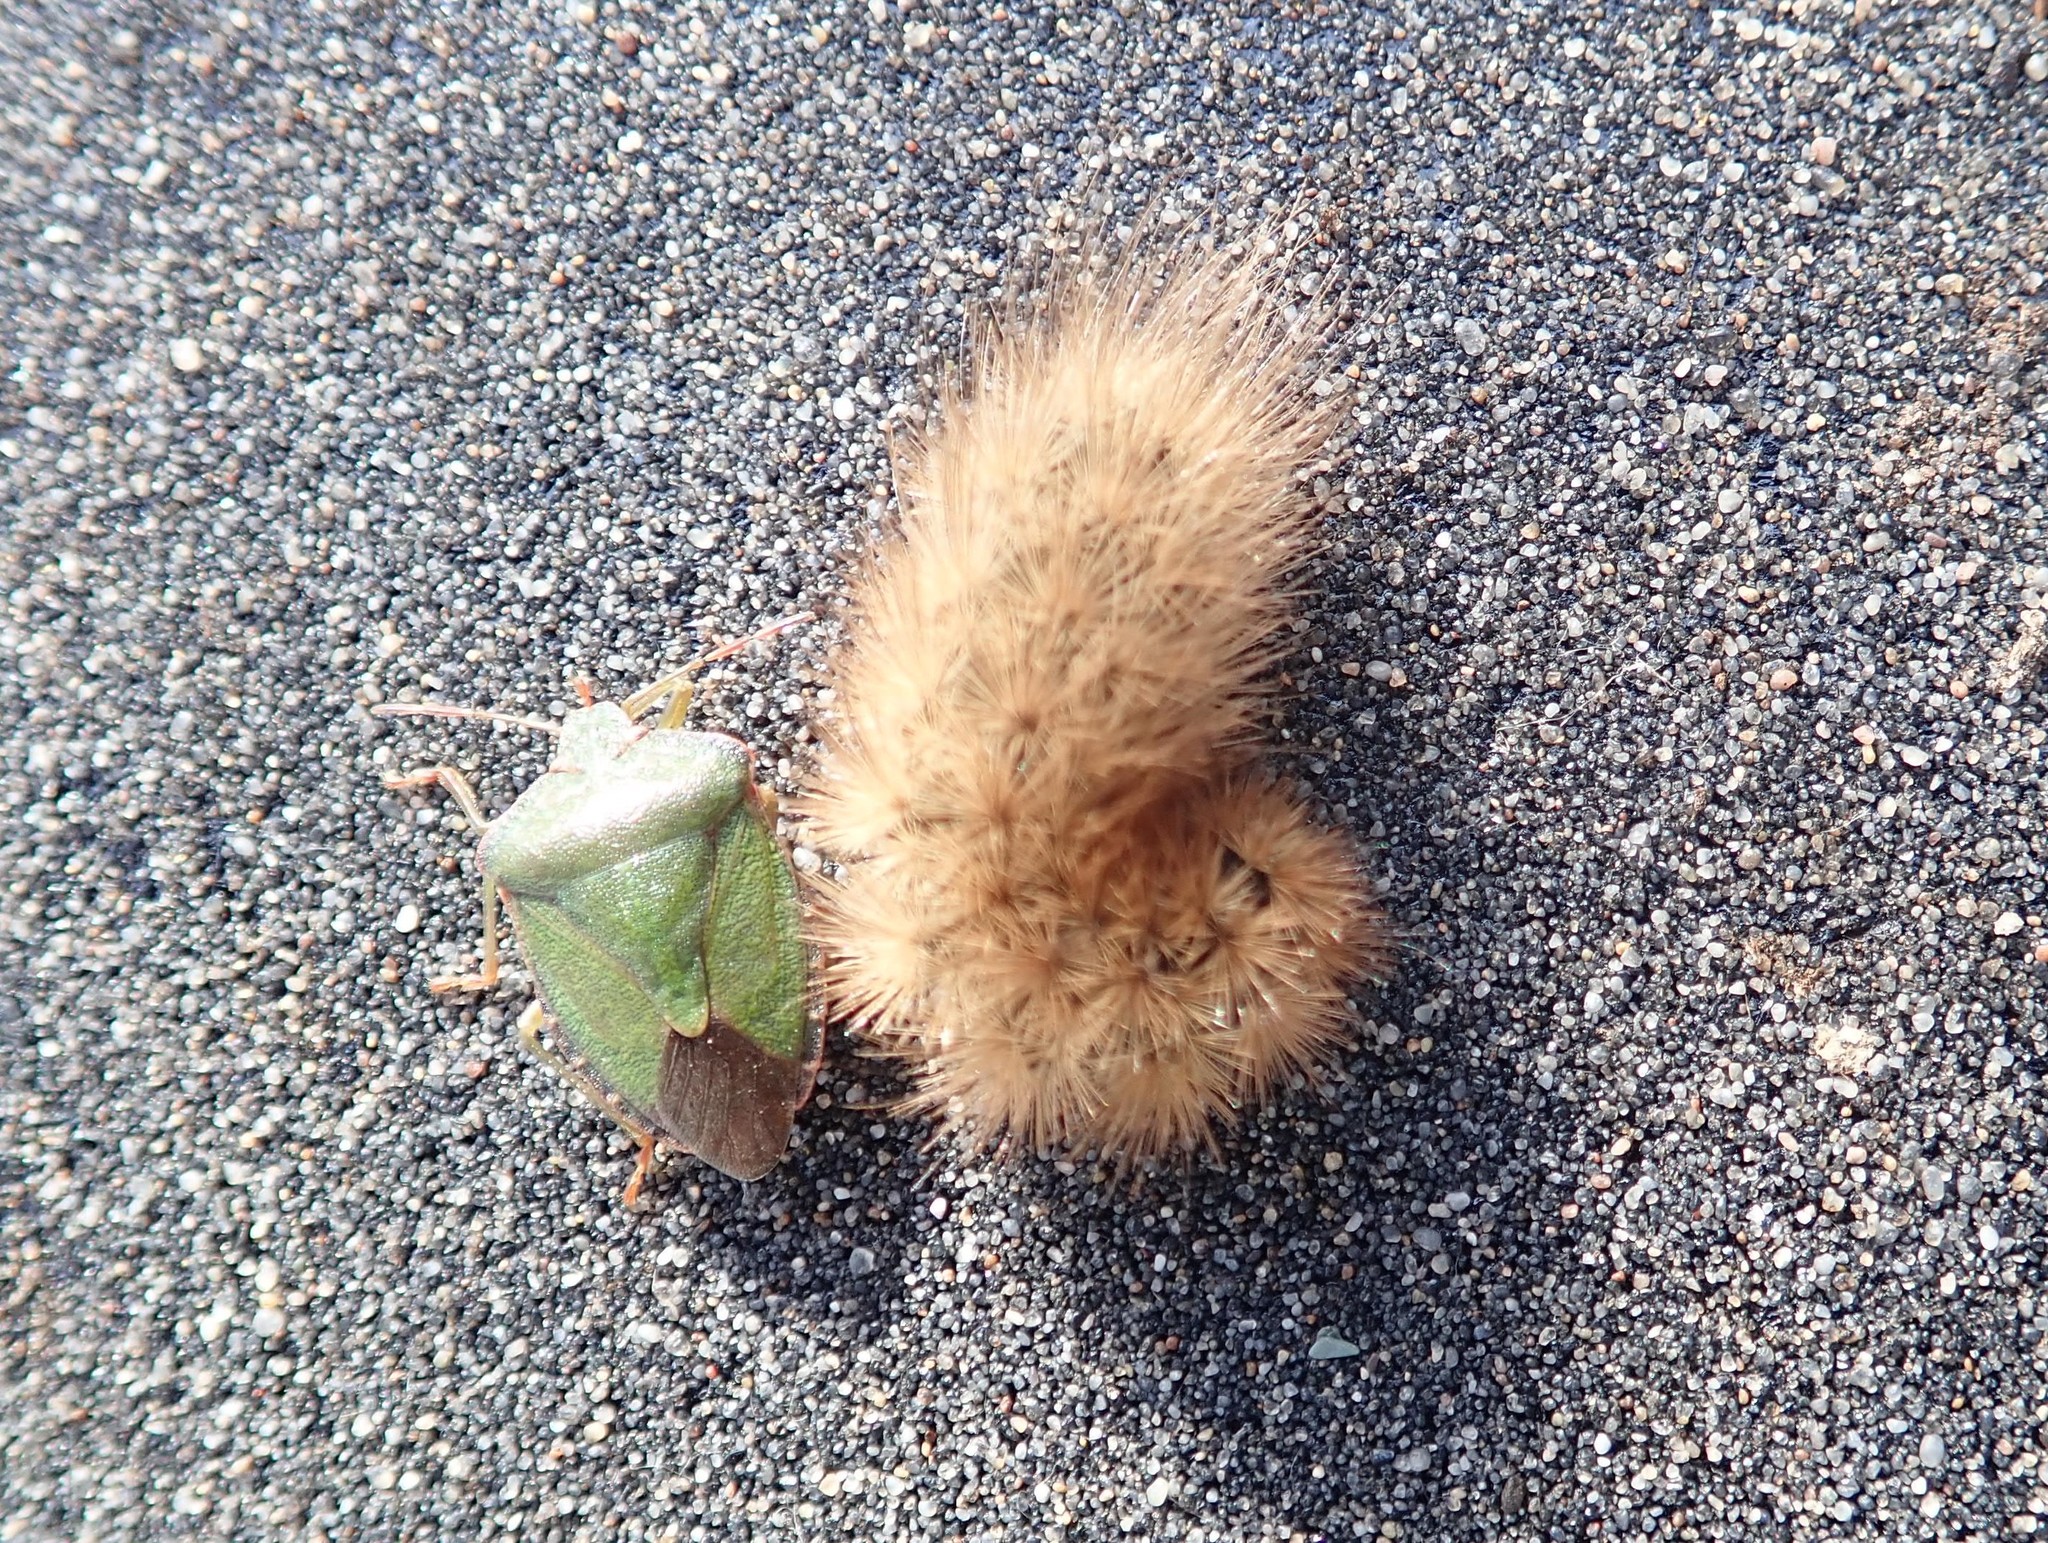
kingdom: Animalia
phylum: Arthropoda
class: Insecta
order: Hemiptera
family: Pentatomidae
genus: Palomena
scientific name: Palomena prasina
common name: Green shieldbug
